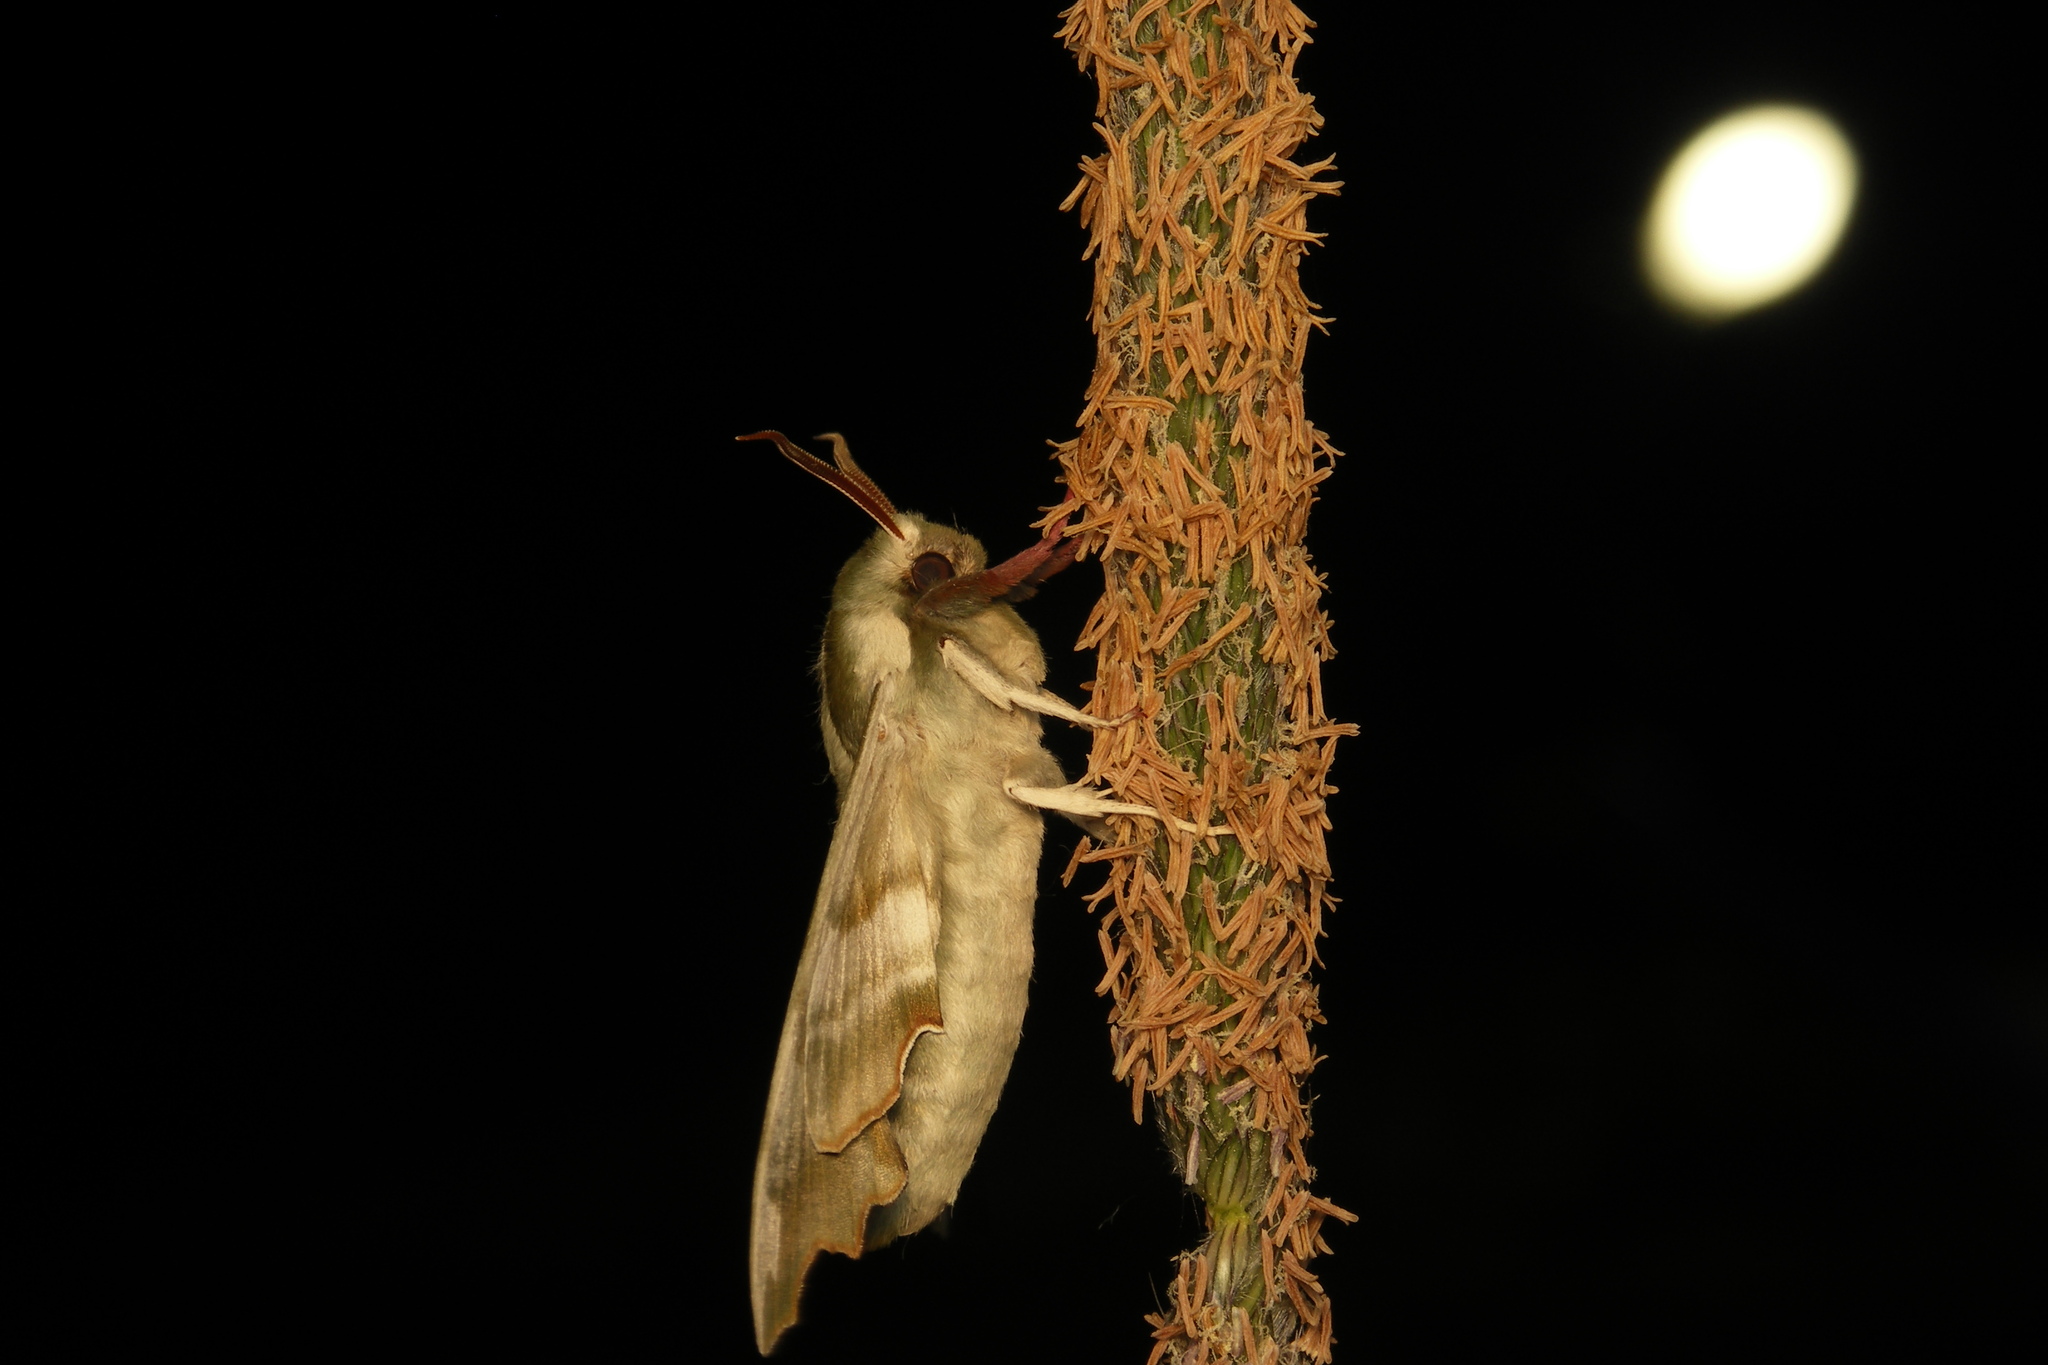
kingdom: Animalia
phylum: Arthropoda
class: Insecta
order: Lepidoptera
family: Sphingidae
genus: Mimas
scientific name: Mimas tiliae
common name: Lime hawk-moth
